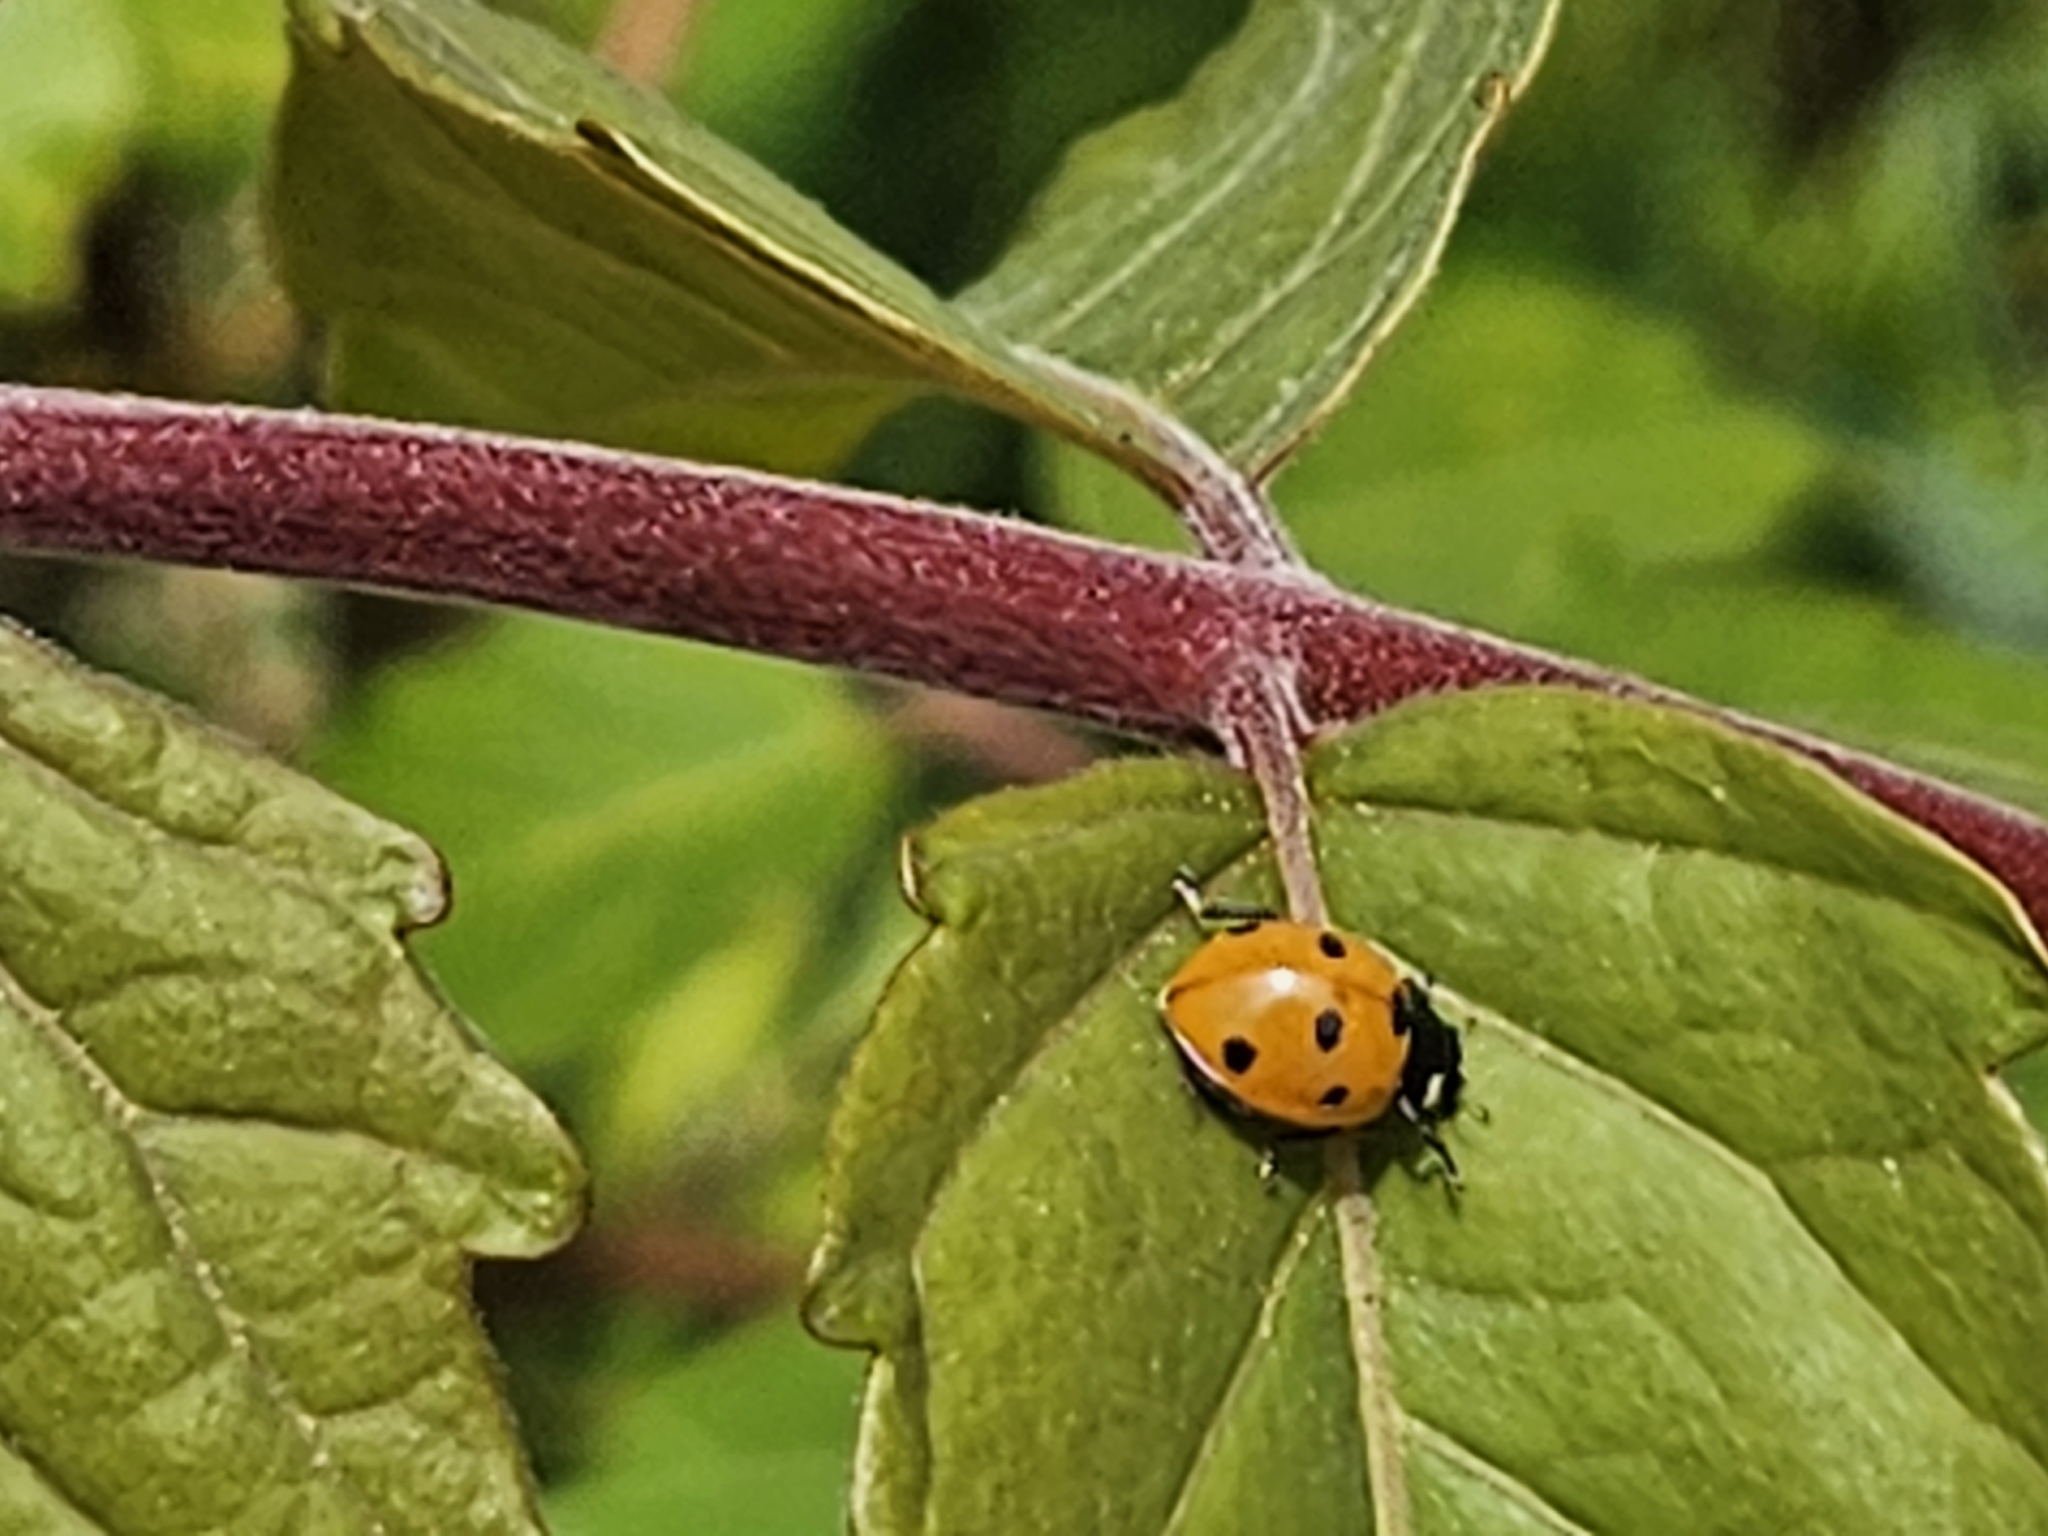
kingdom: Animalia
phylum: Arthropoda
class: Insecta
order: Coleoptera
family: Coccinellidae
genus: Coccinella
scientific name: Coccinella septempunctata
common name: Sevenspotted lady beetle
